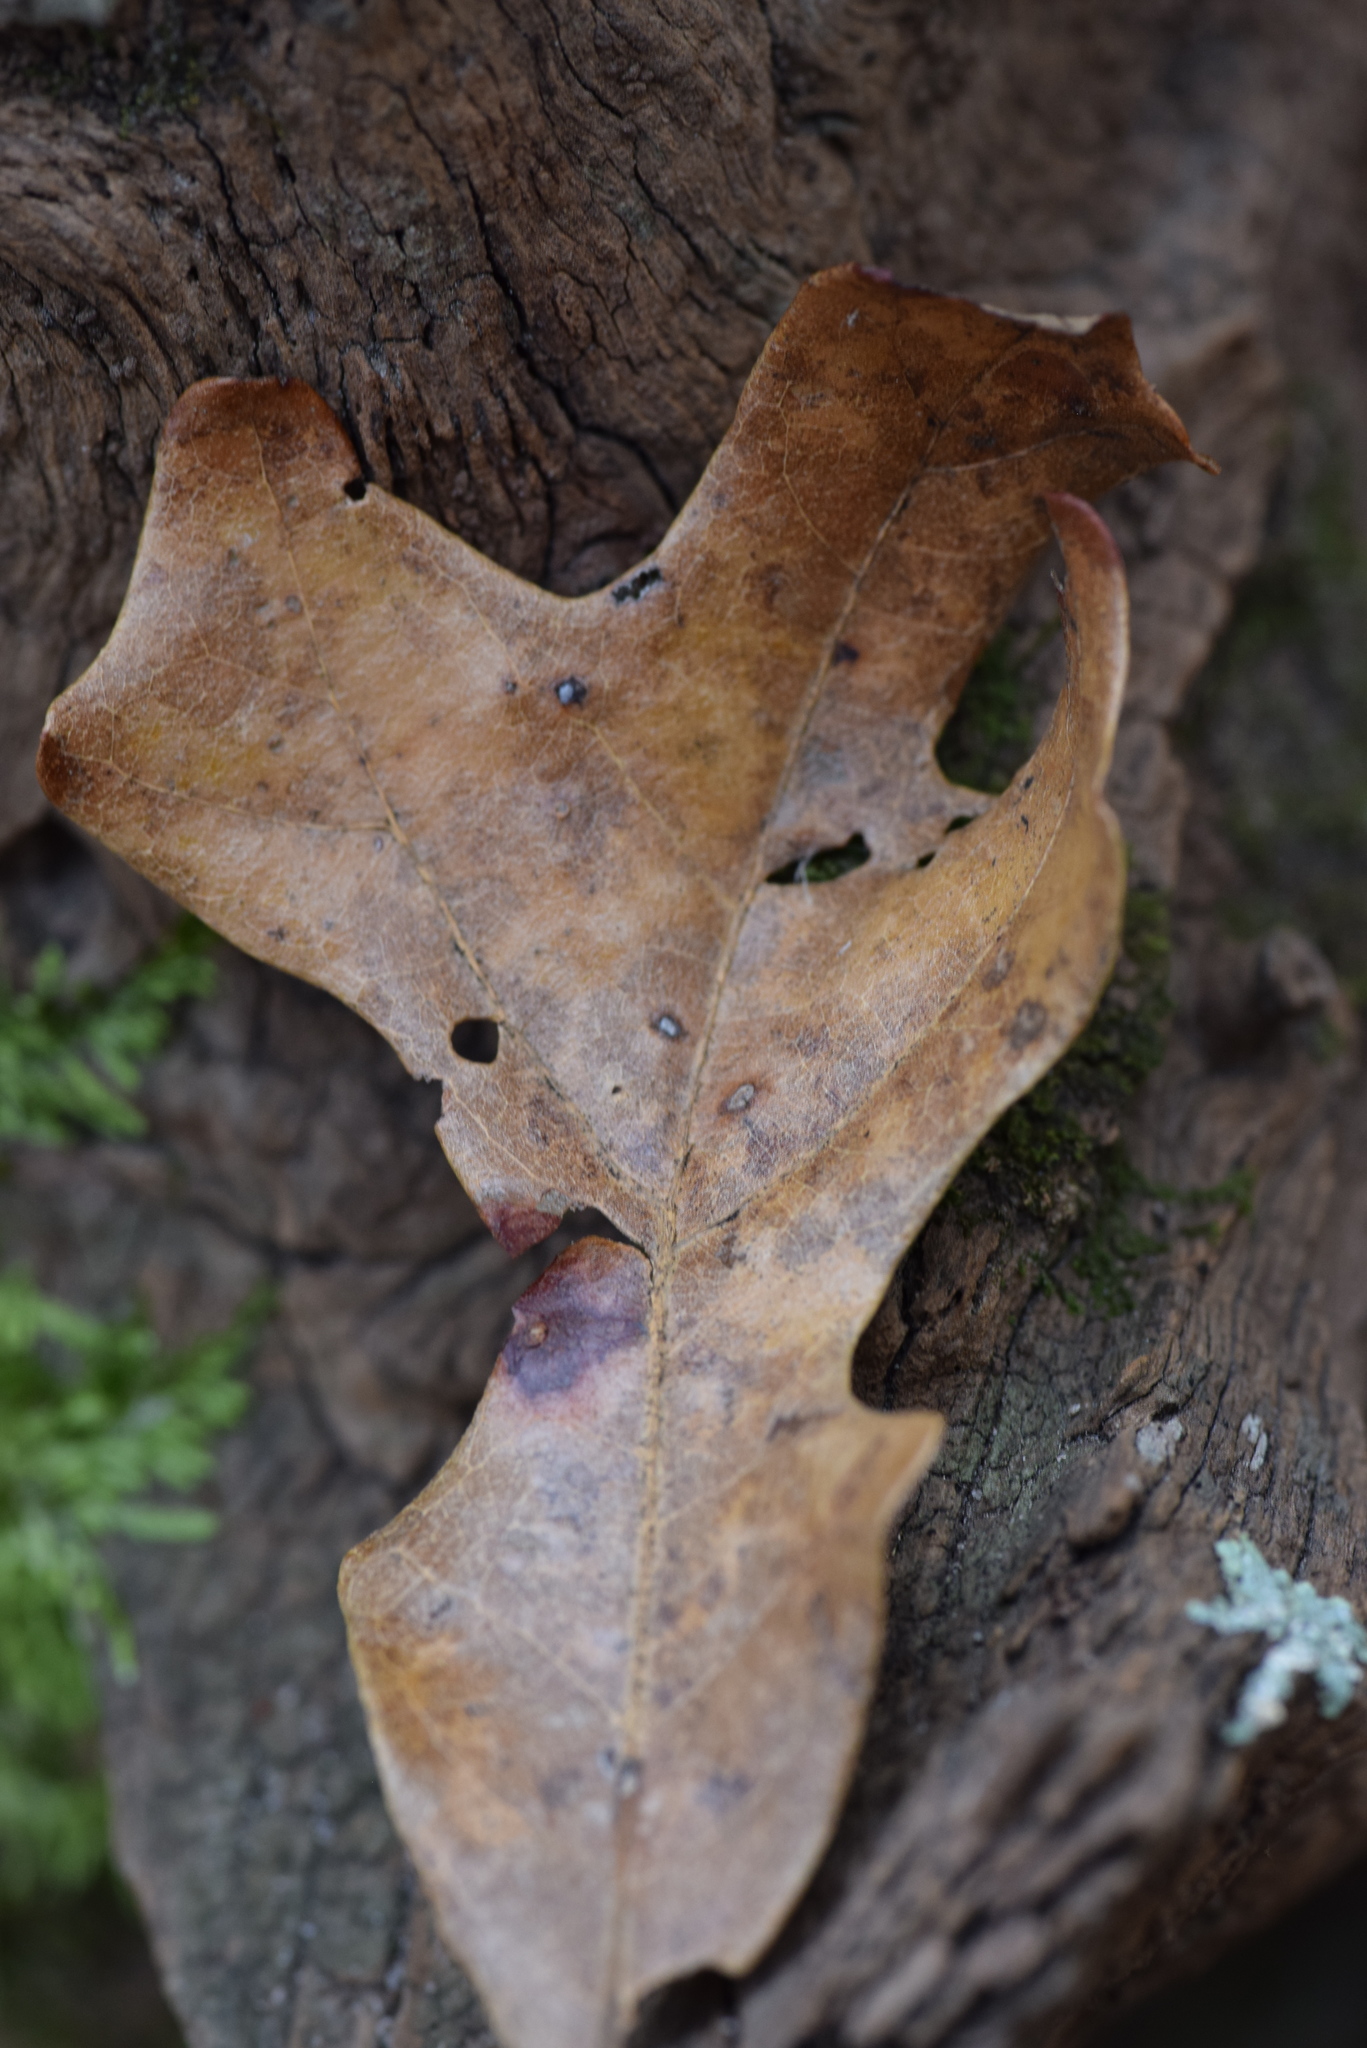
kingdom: Animalia
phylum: Arthropoda
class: Insecta
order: Hymenoptera
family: Cynipidae
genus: Andricus
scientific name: Andricus Druon pattoni
